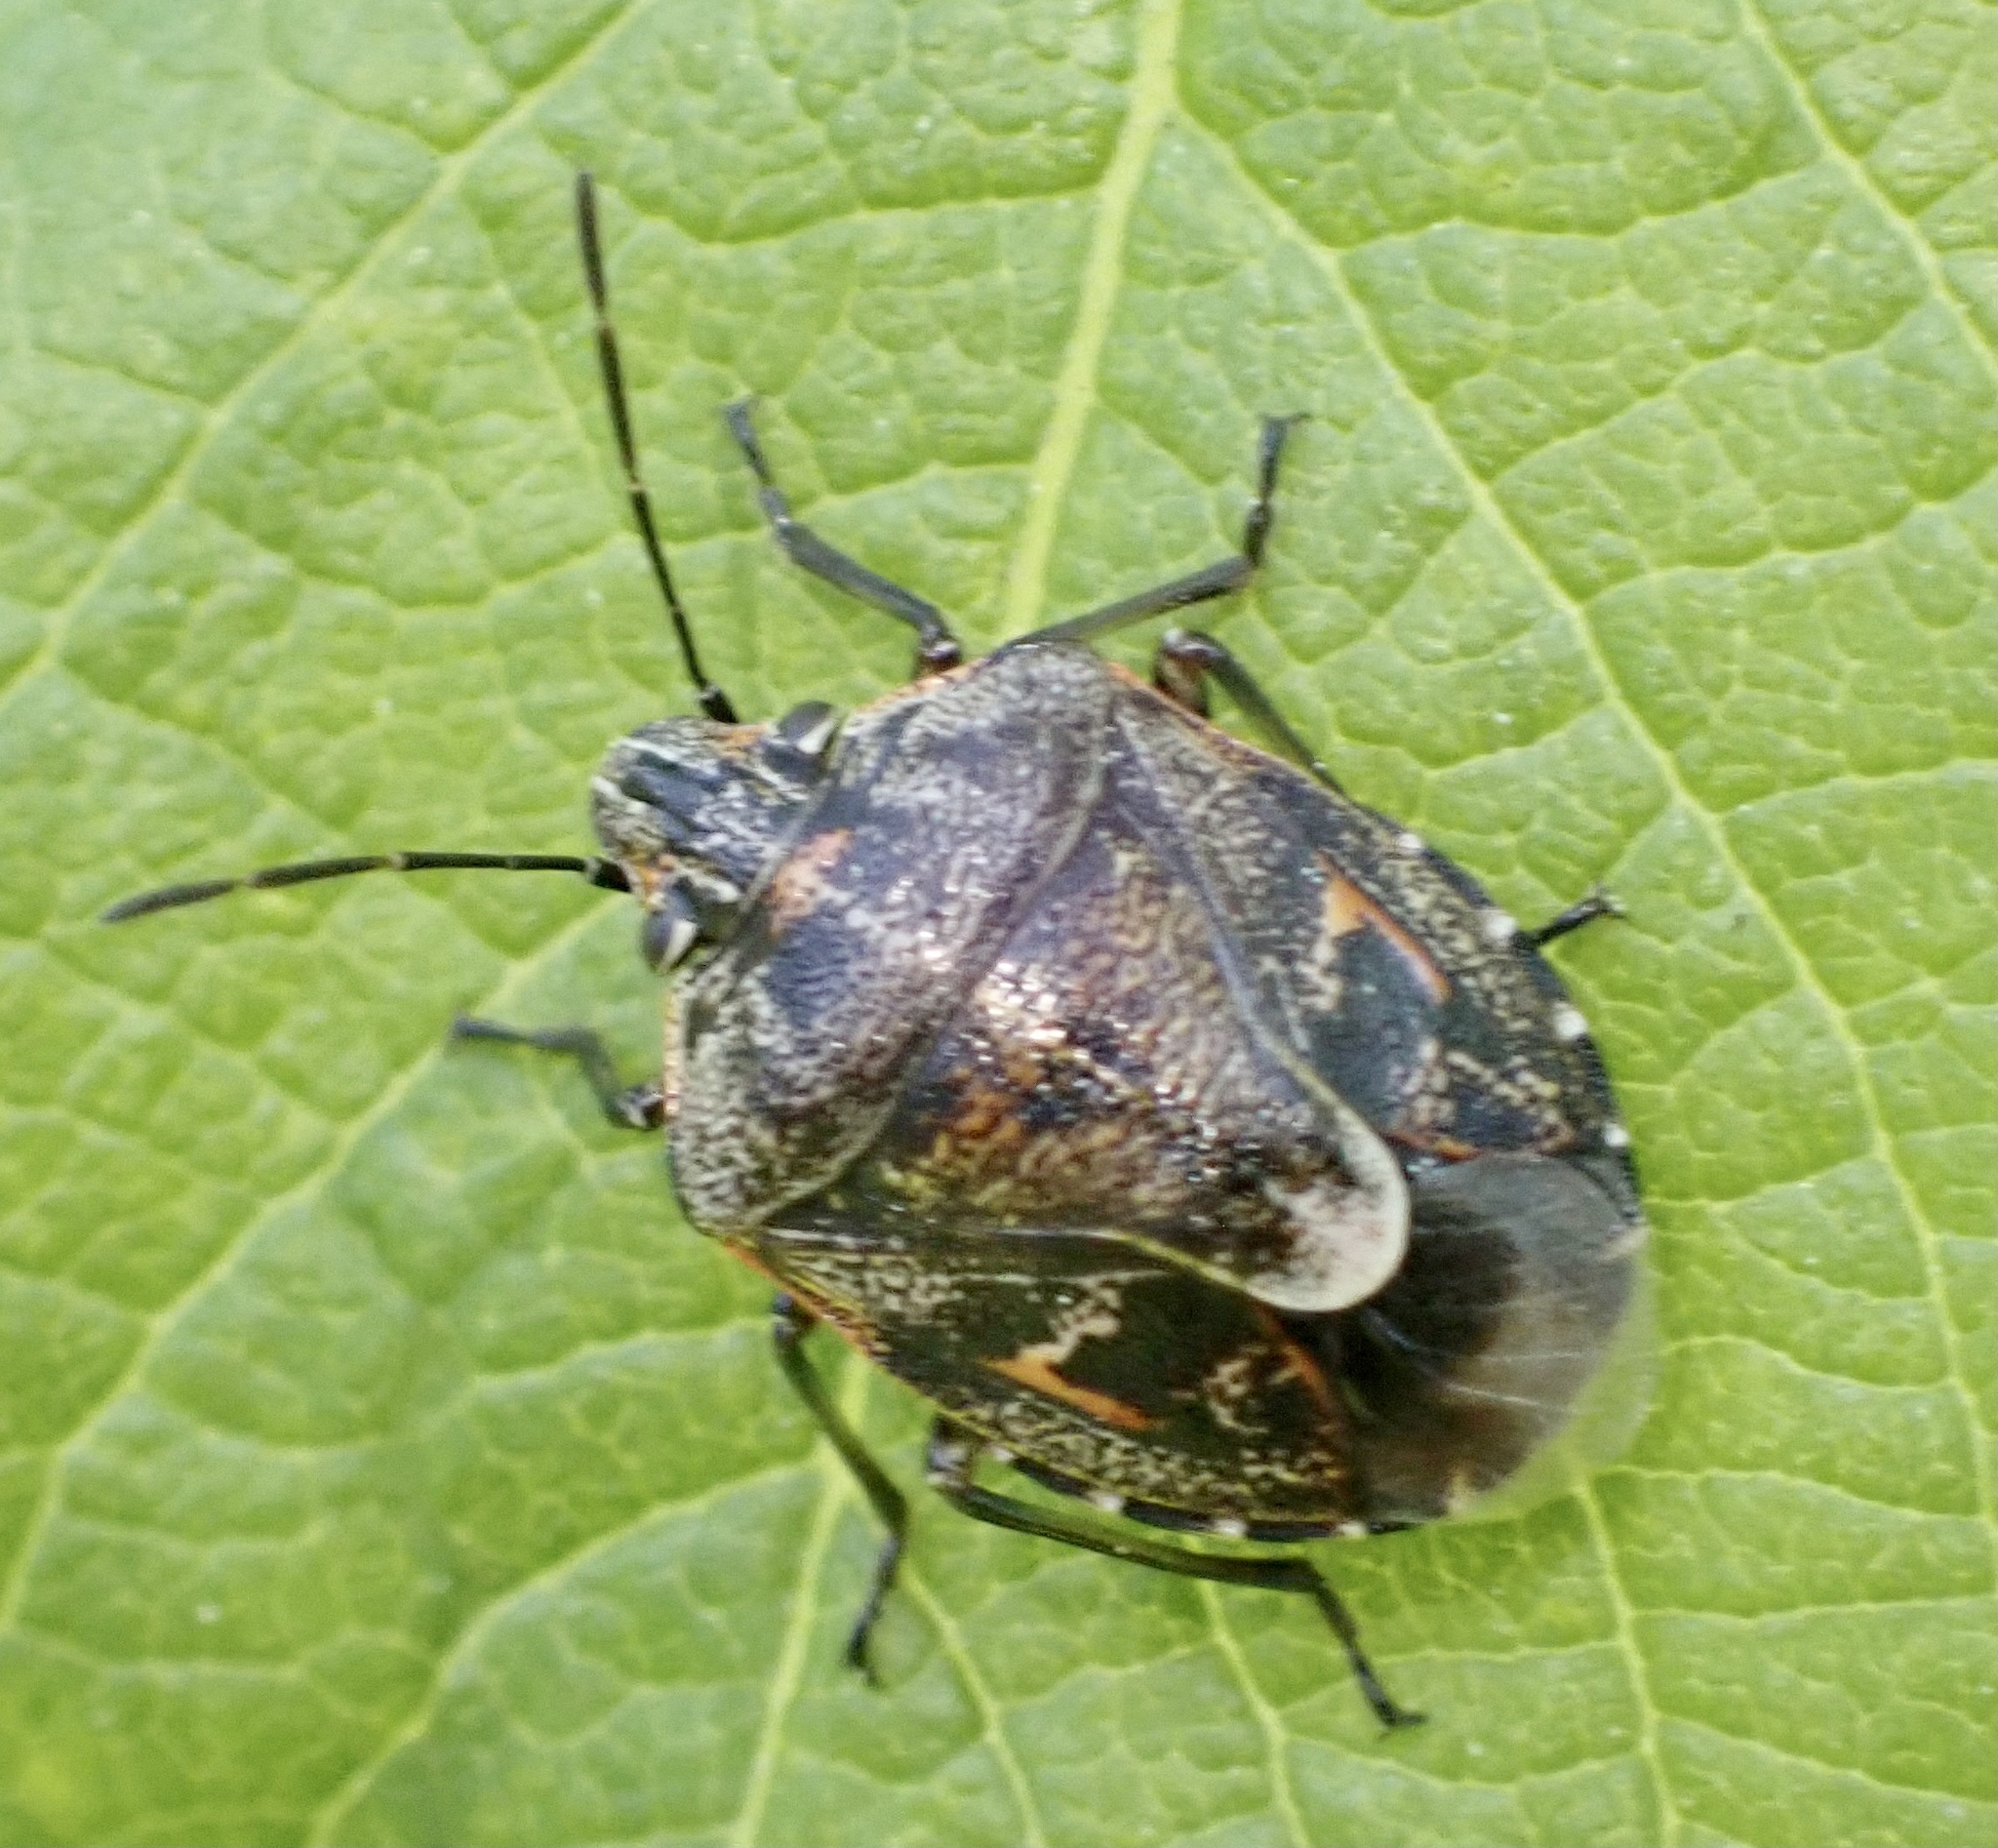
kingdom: Animalia
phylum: Arthropoda
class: Insecta
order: Hemiptera
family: Pentatomidae
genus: Holcogaster
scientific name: Holcogaster fibulata
